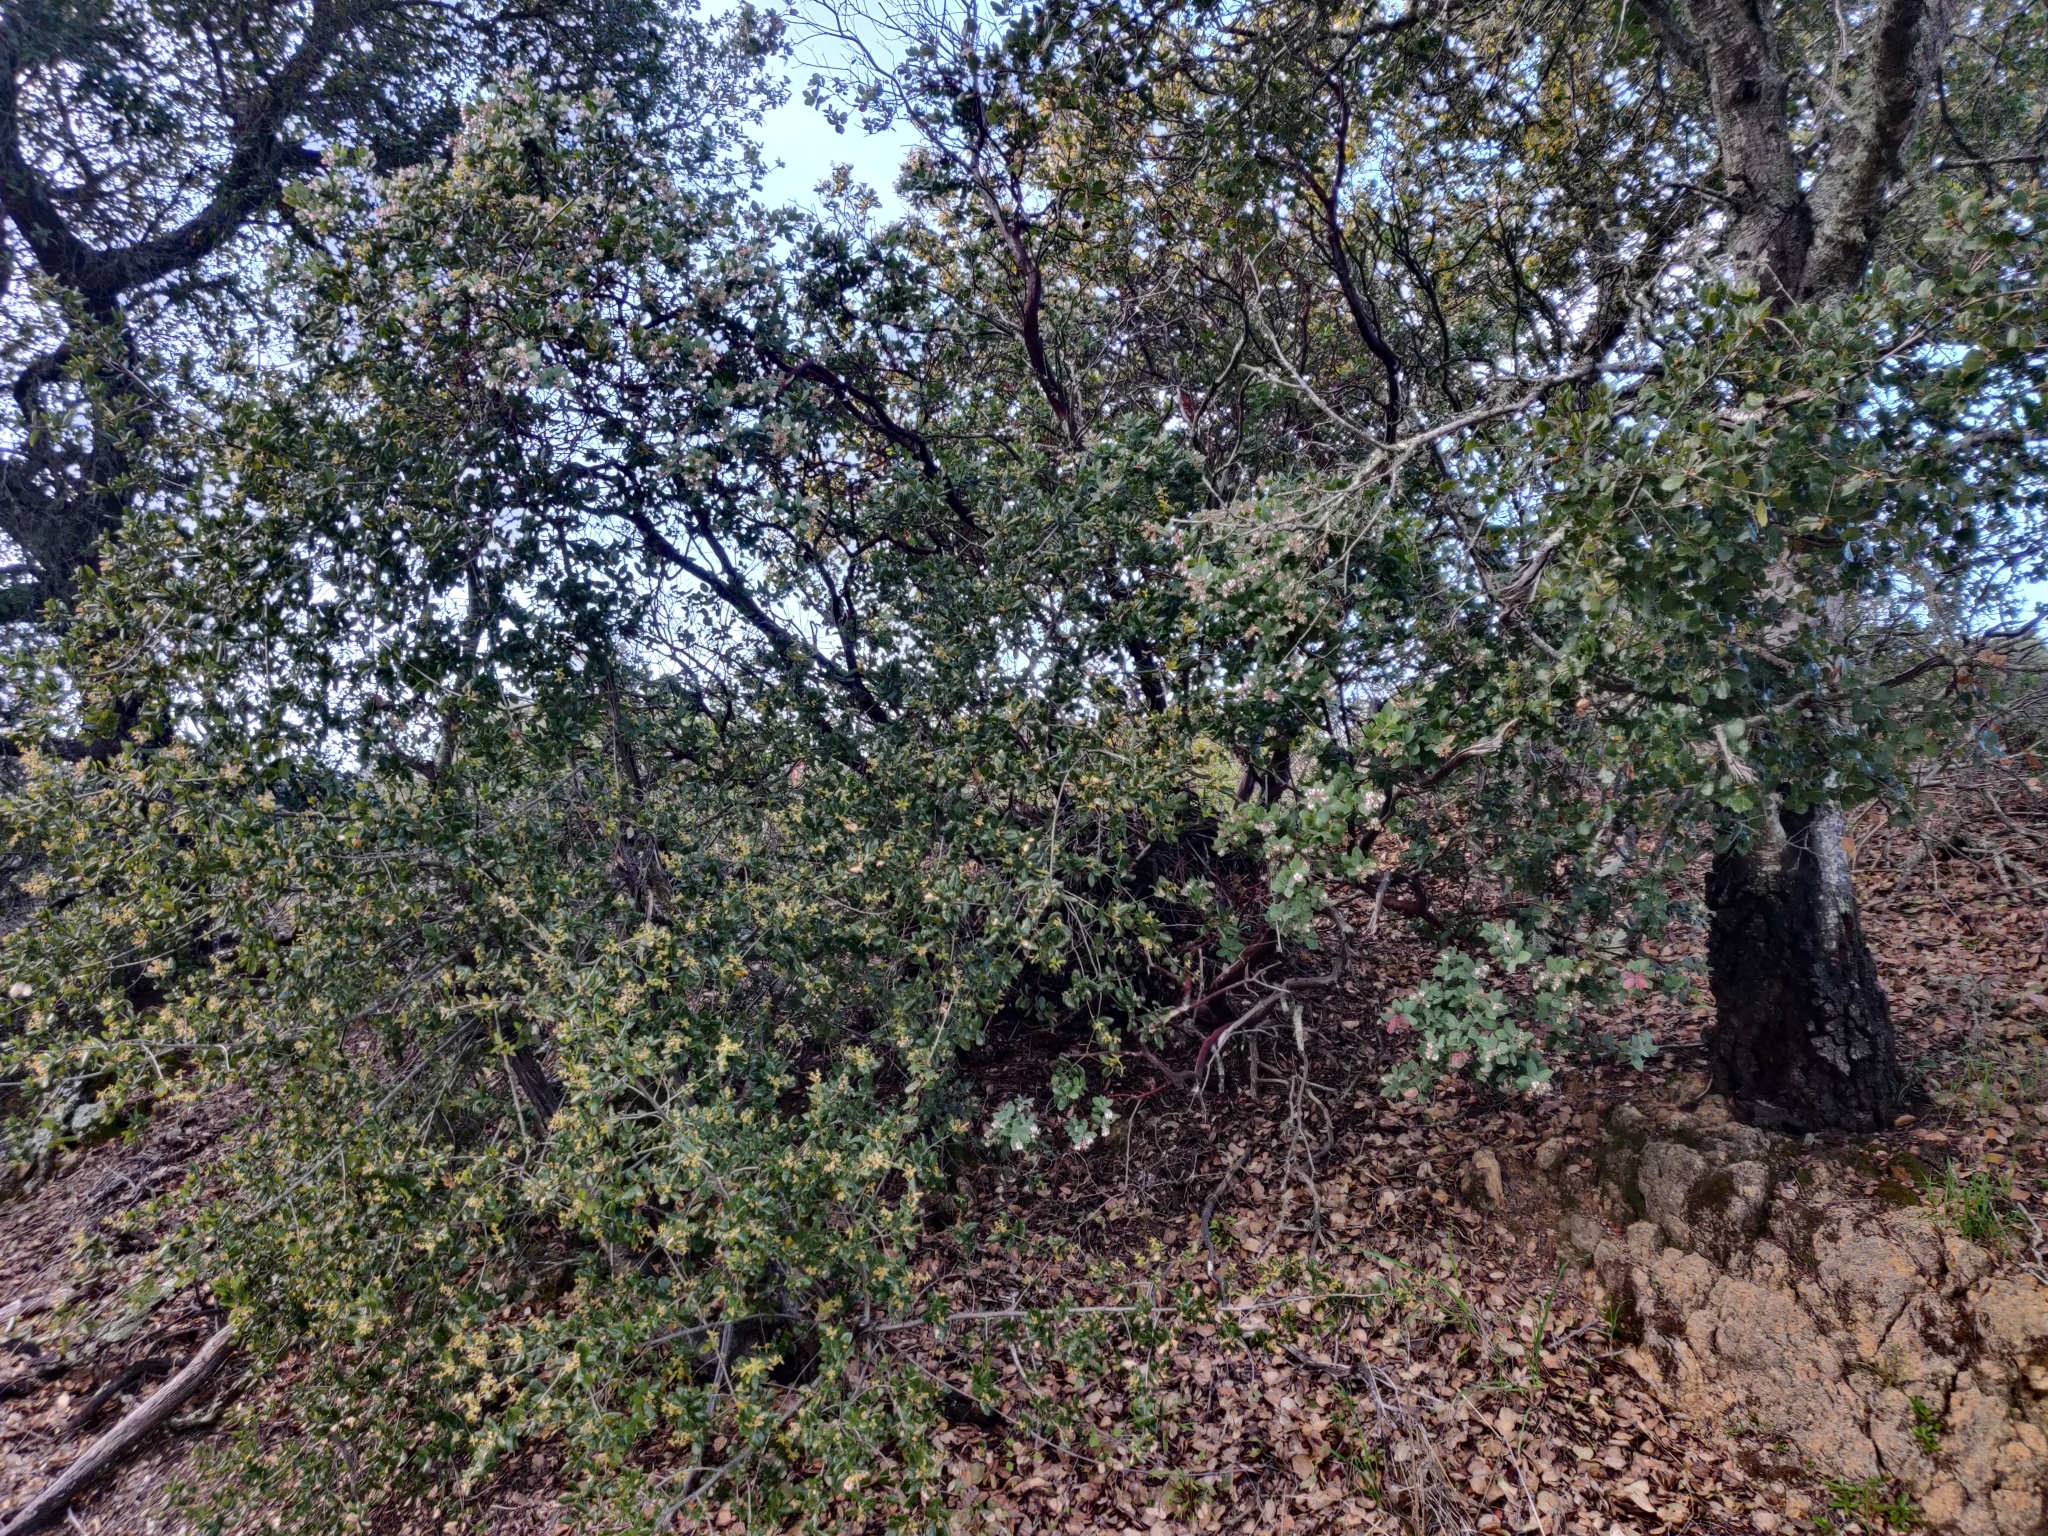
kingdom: Animalia
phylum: Chordata
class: Mammalia
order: Rodentia
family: Cricetidae
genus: Neotoma
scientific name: Neotoma fuscipes
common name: Dusky-footed woodrat
